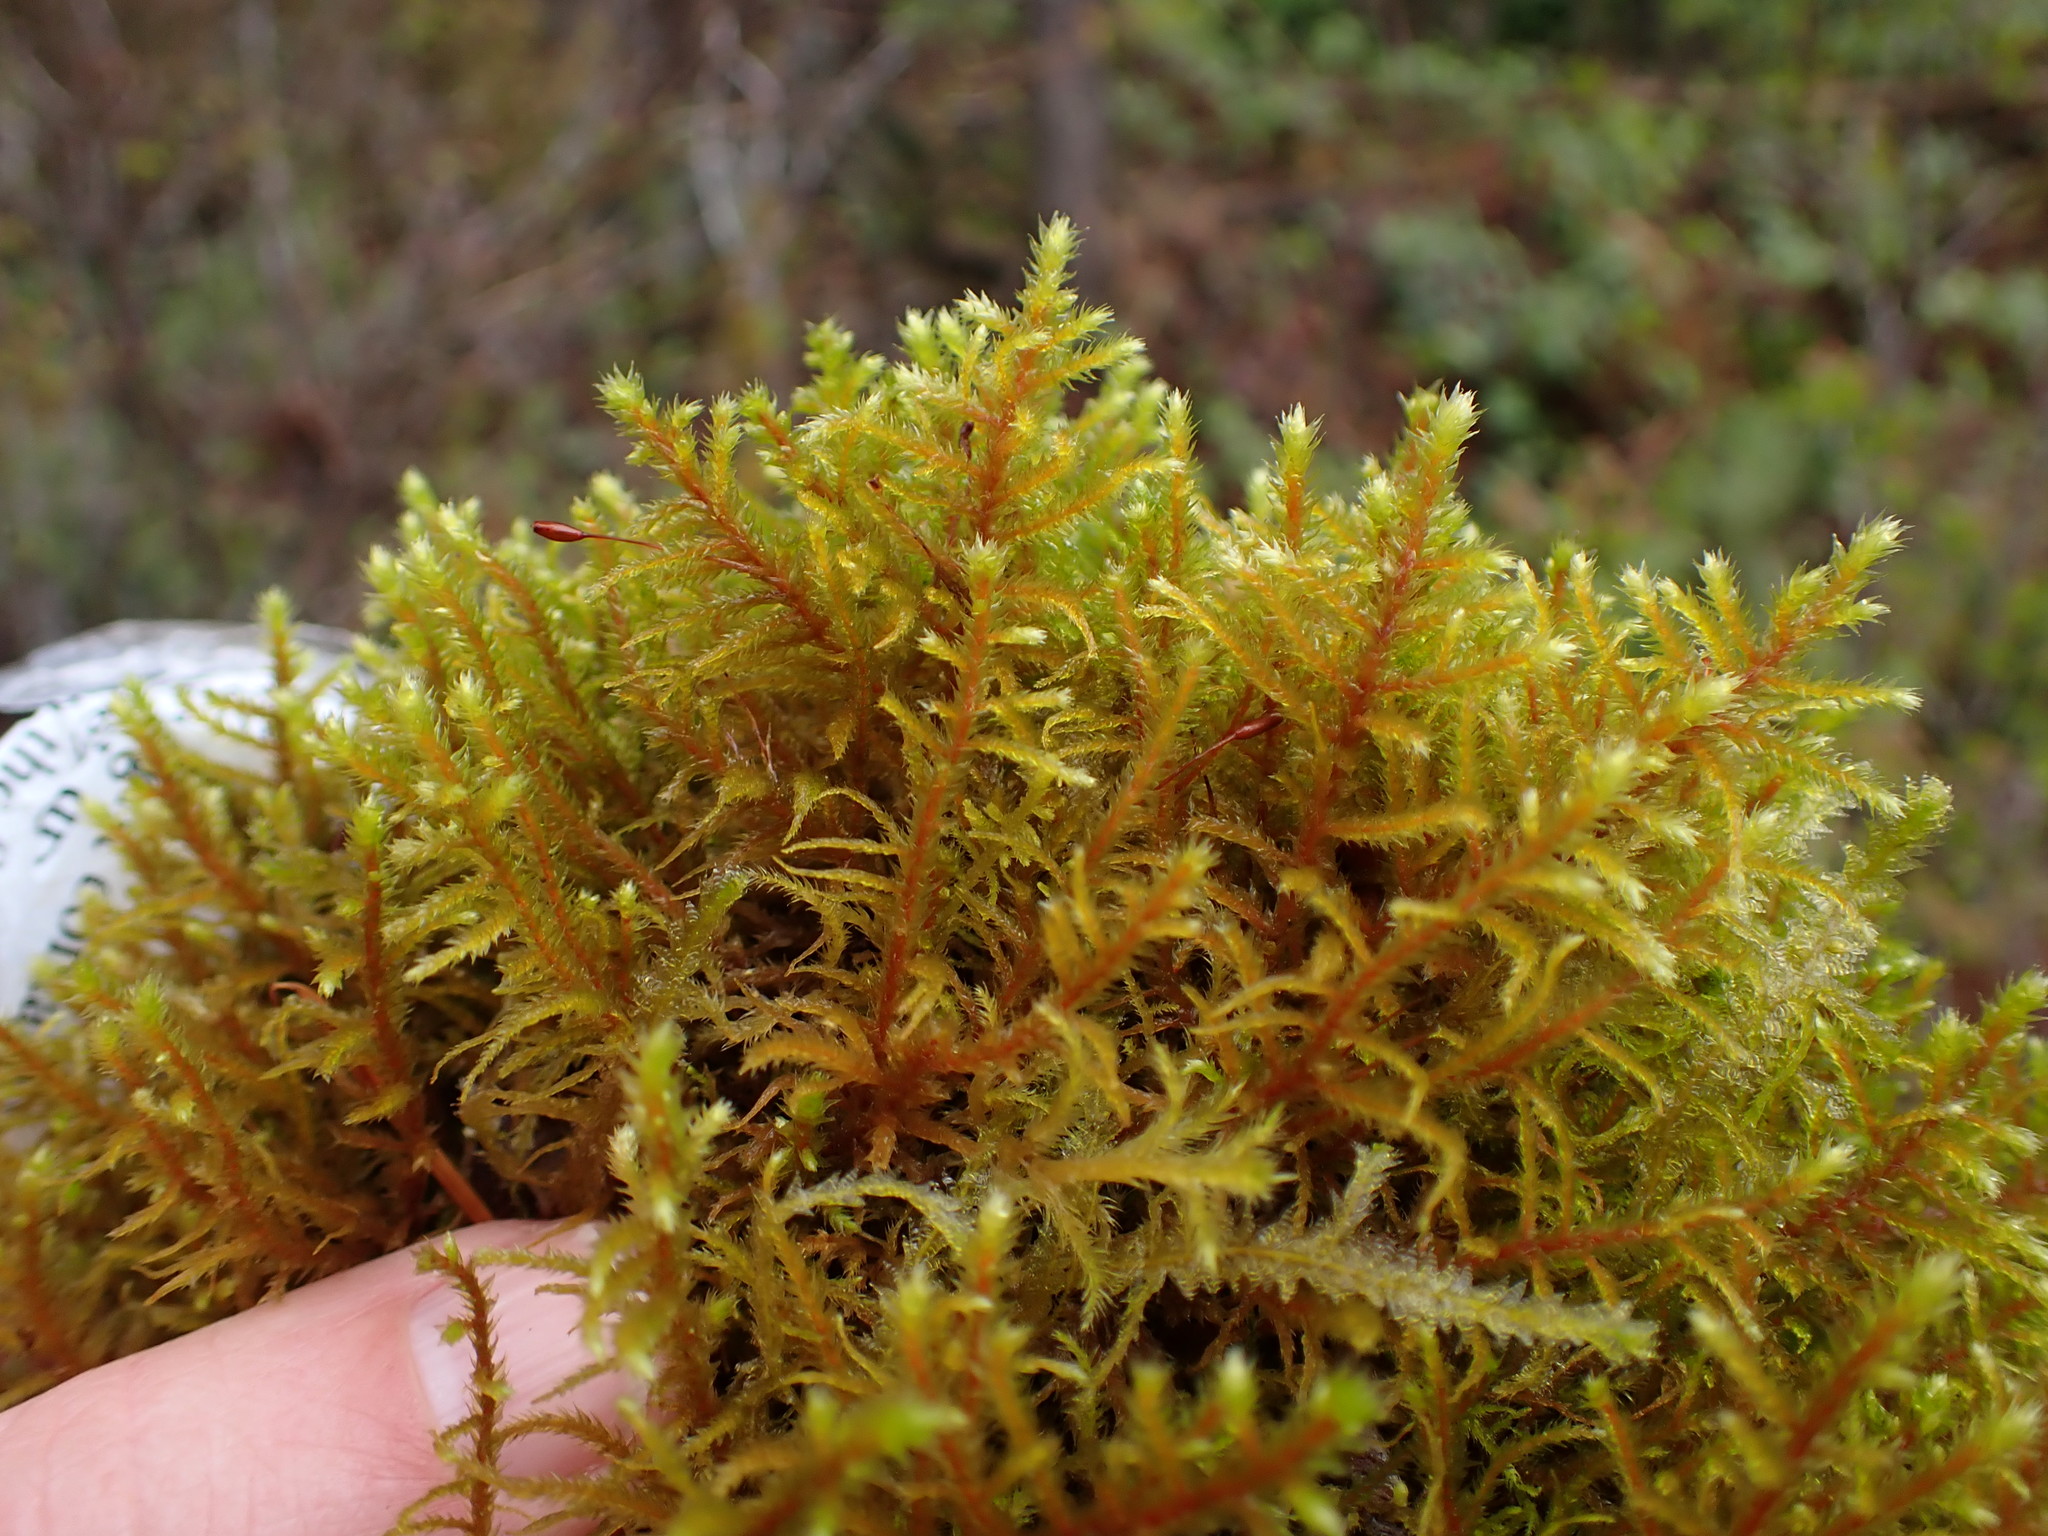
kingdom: Plantae
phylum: Bryophyta
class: Bryopsida
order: Hypnales
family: Antitrichiaceae
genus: Antitrichia
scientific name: Antitrichia californica
